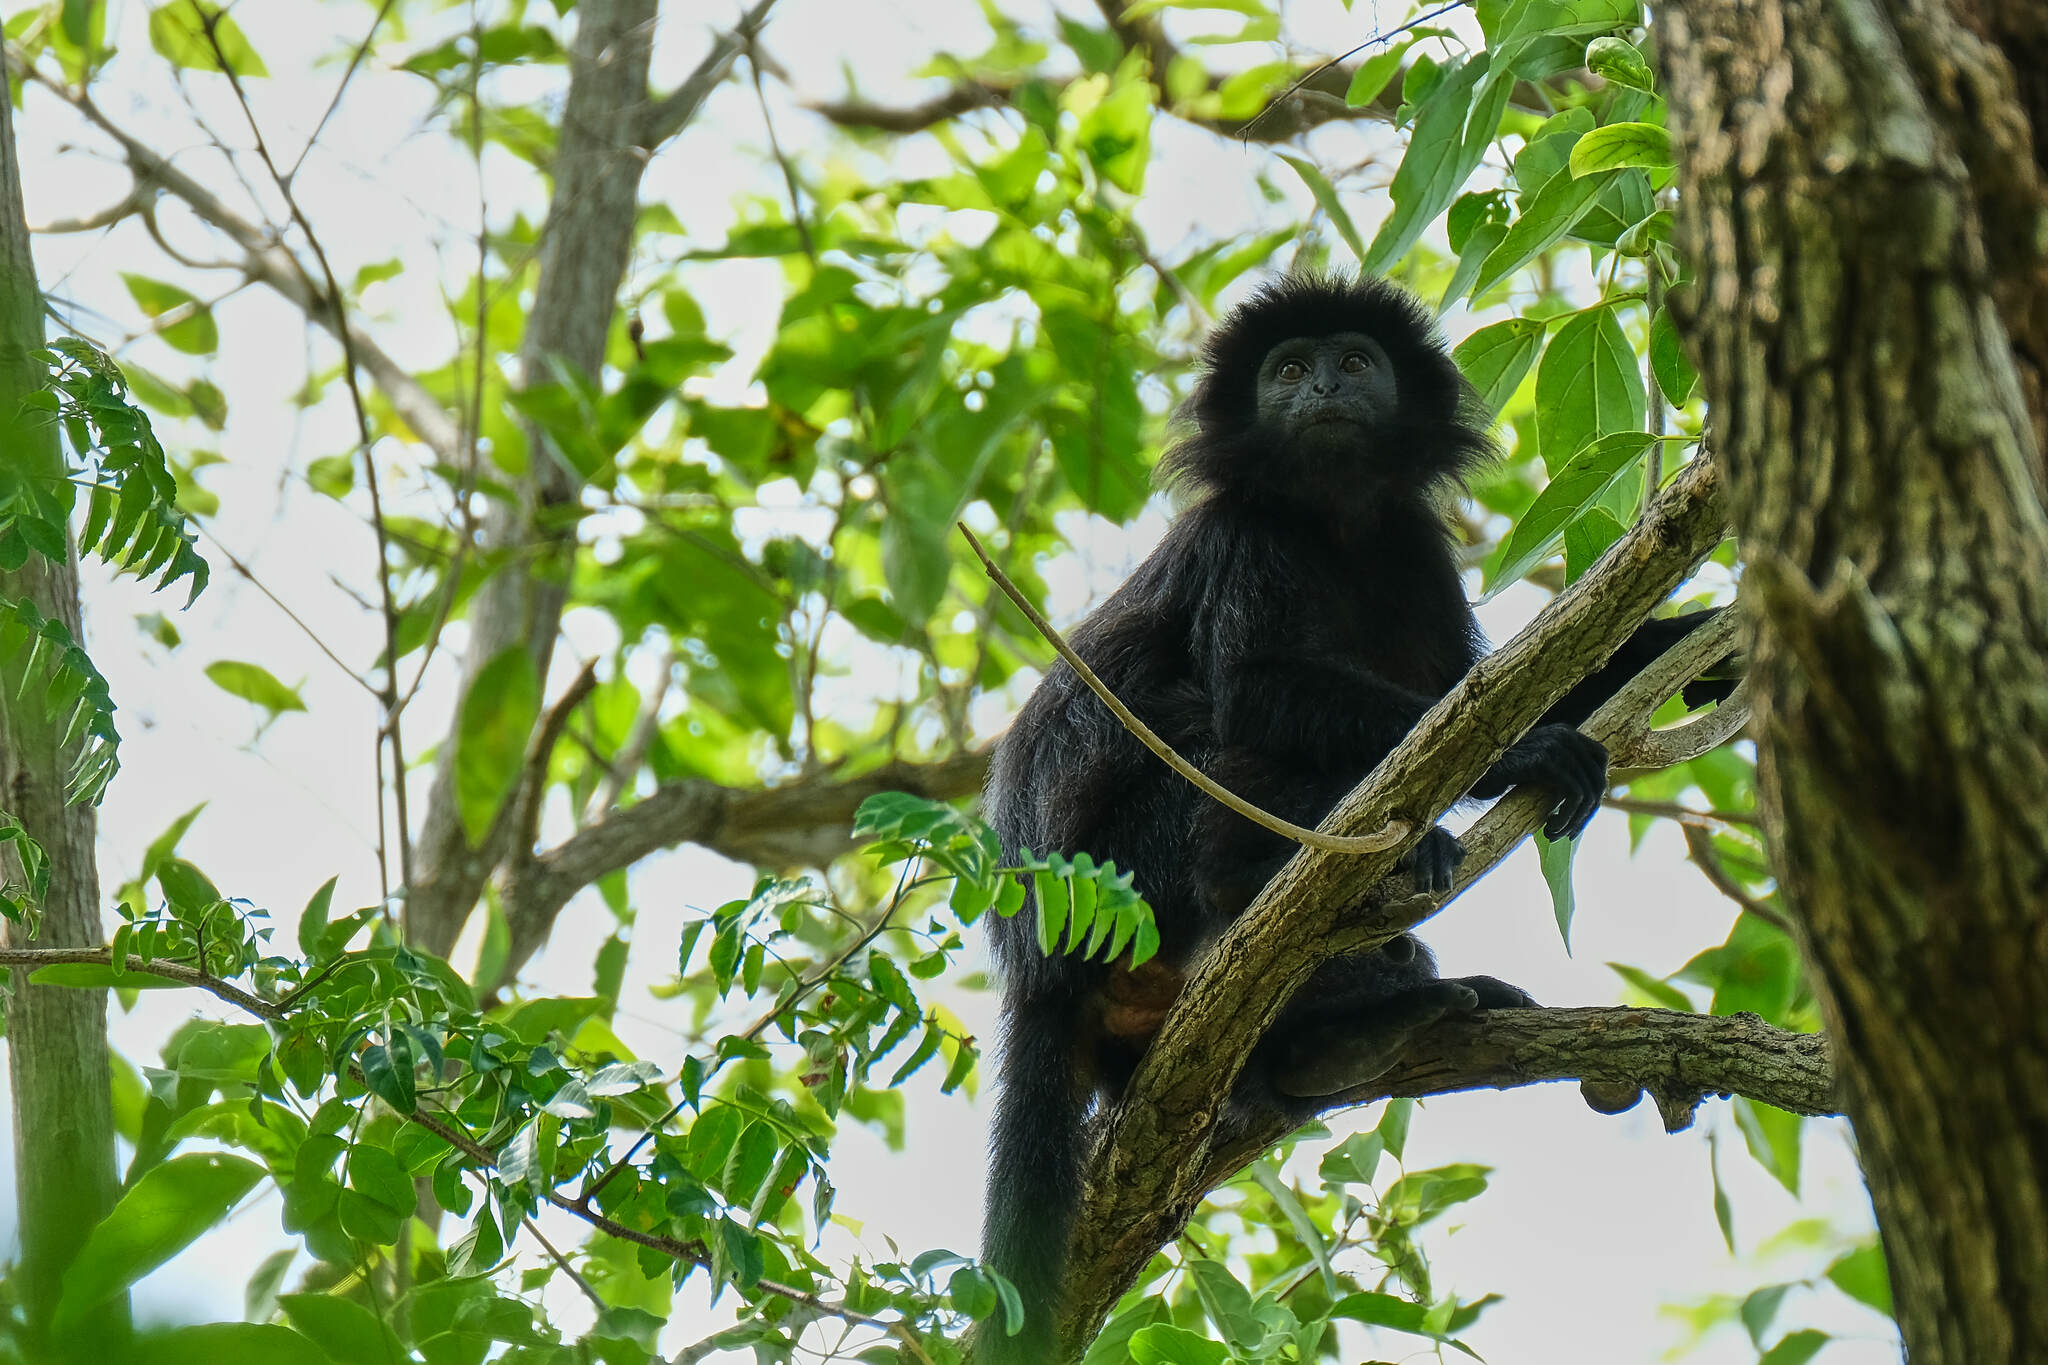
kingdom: Animalia
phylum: Chordata
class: Mammalia
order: Primates
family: Cercopithecidae
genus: Trachypithecus
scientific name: Trachypithecus auratus
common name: Javan lutung
